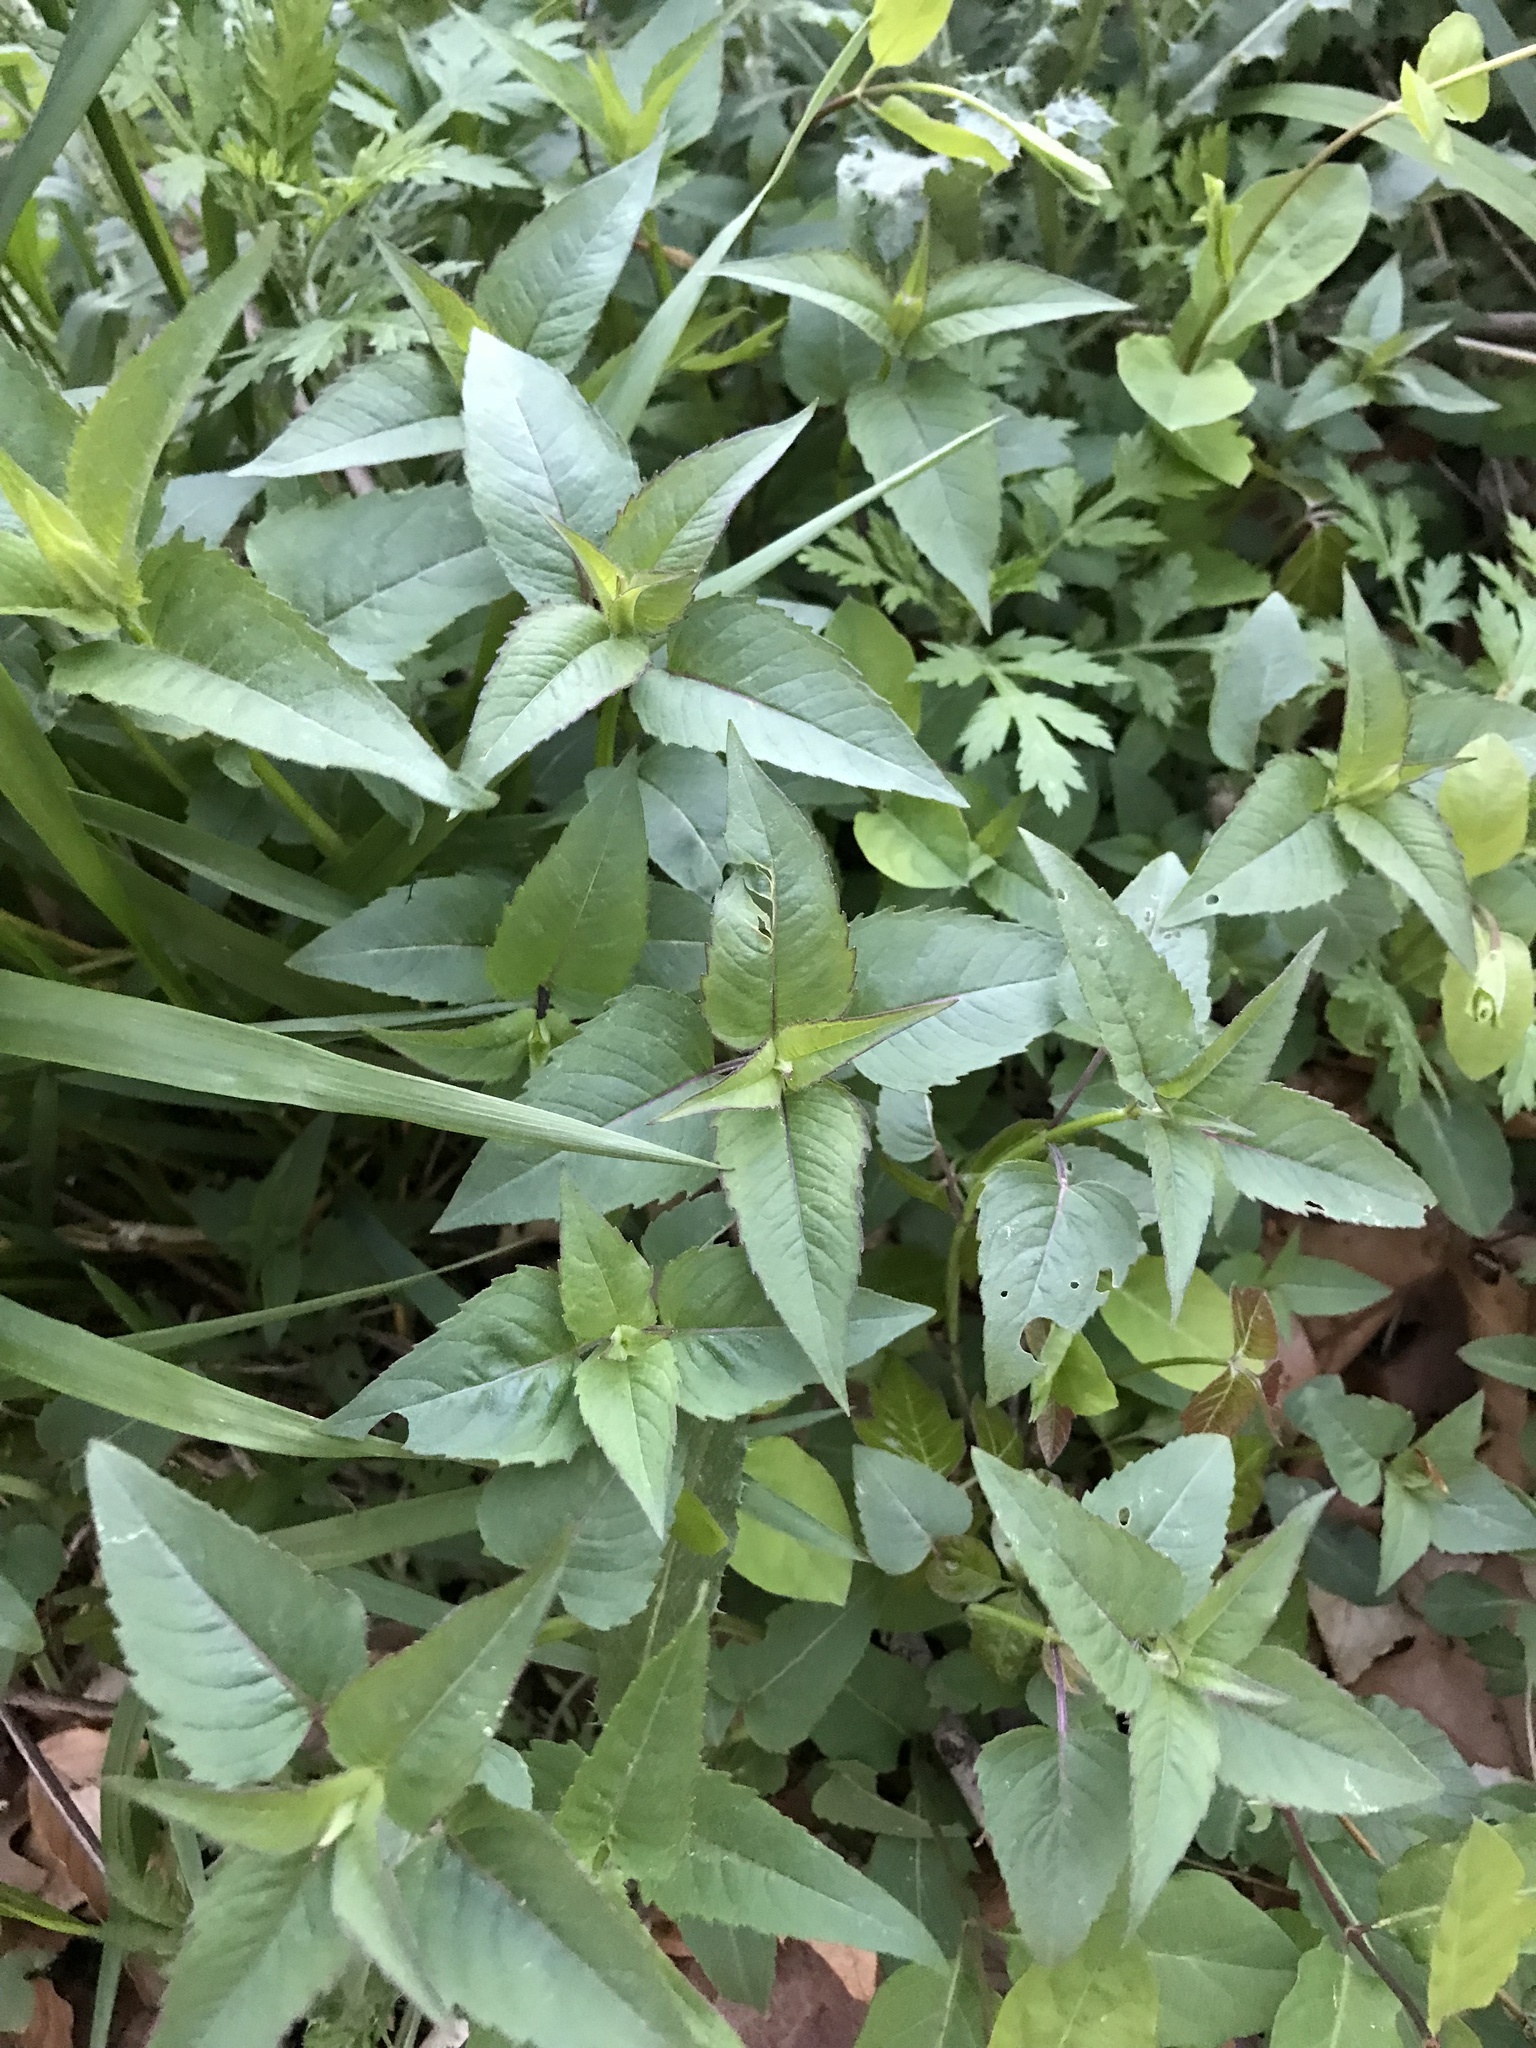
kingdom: Plantae
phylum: Tracheophyta
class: Magnoliopsida
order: Lamiales
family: Lamiaceae
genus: Monarda
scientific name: Monarda fistulosa
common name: Purple beebalm
